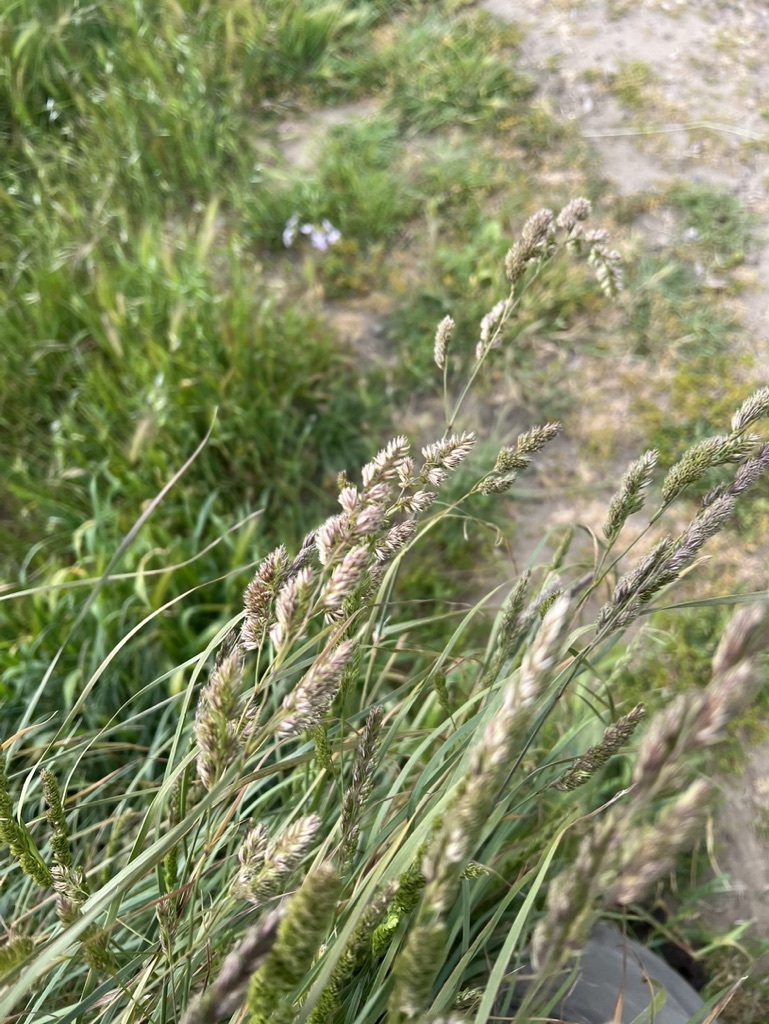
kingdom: Plantae
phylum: Tracheophyta
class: Liliopsida
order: Poales
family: Poaceae
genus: Dactylis
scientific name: Dactylis glomerata
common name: Orchardgrass
